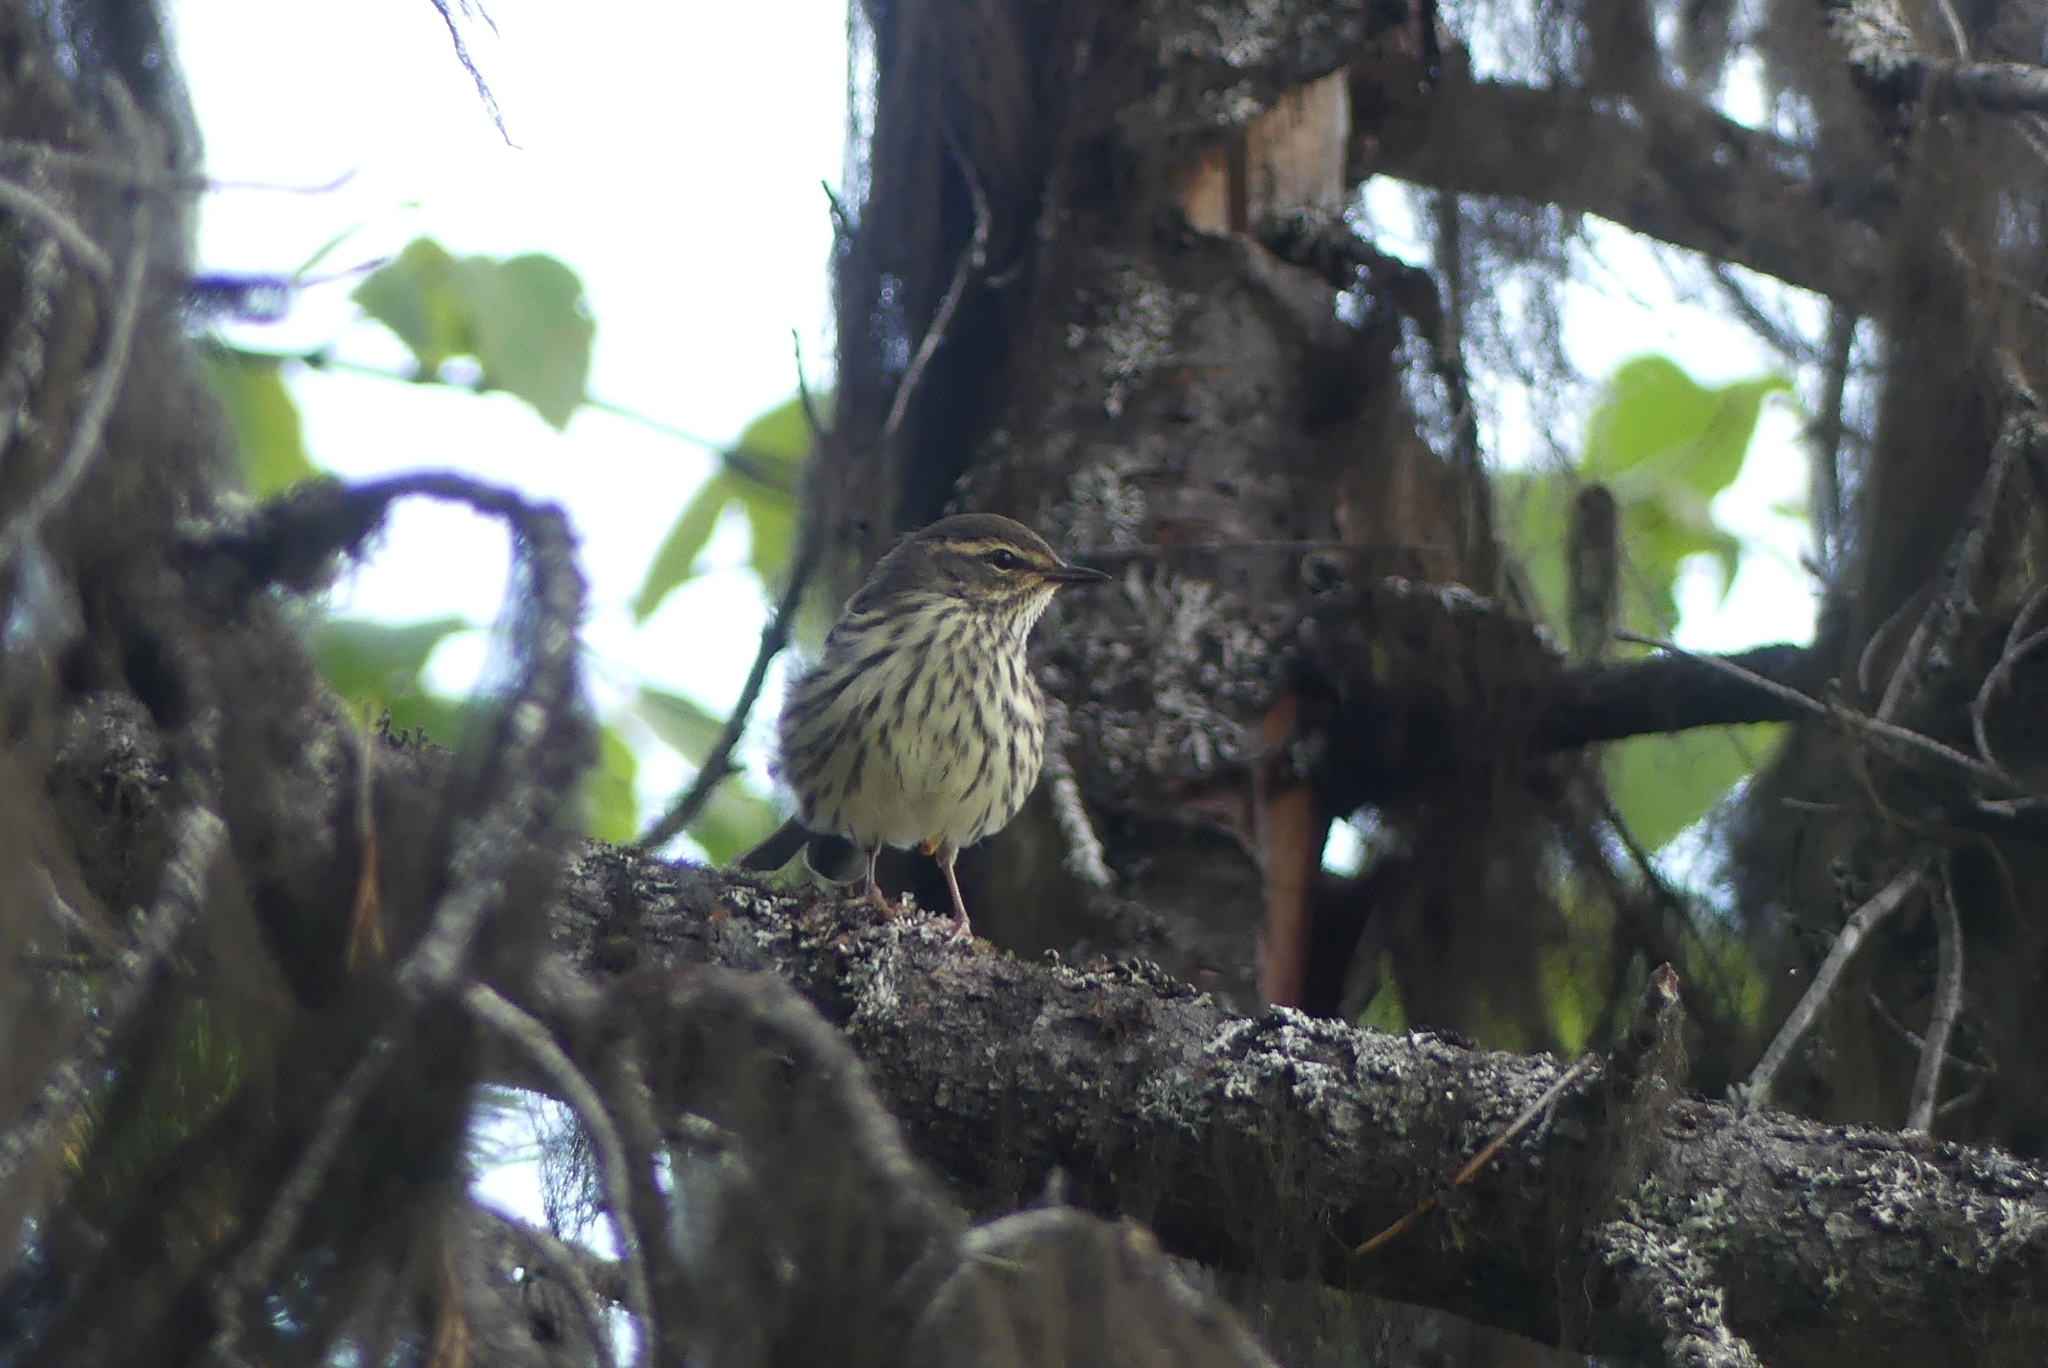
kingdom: Animalia
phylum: Chordata
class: Aves
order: Passeriformes
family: Parulidae
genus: Parkesia
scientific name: Parkesia noveboracensis
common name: Northern waterthrush
